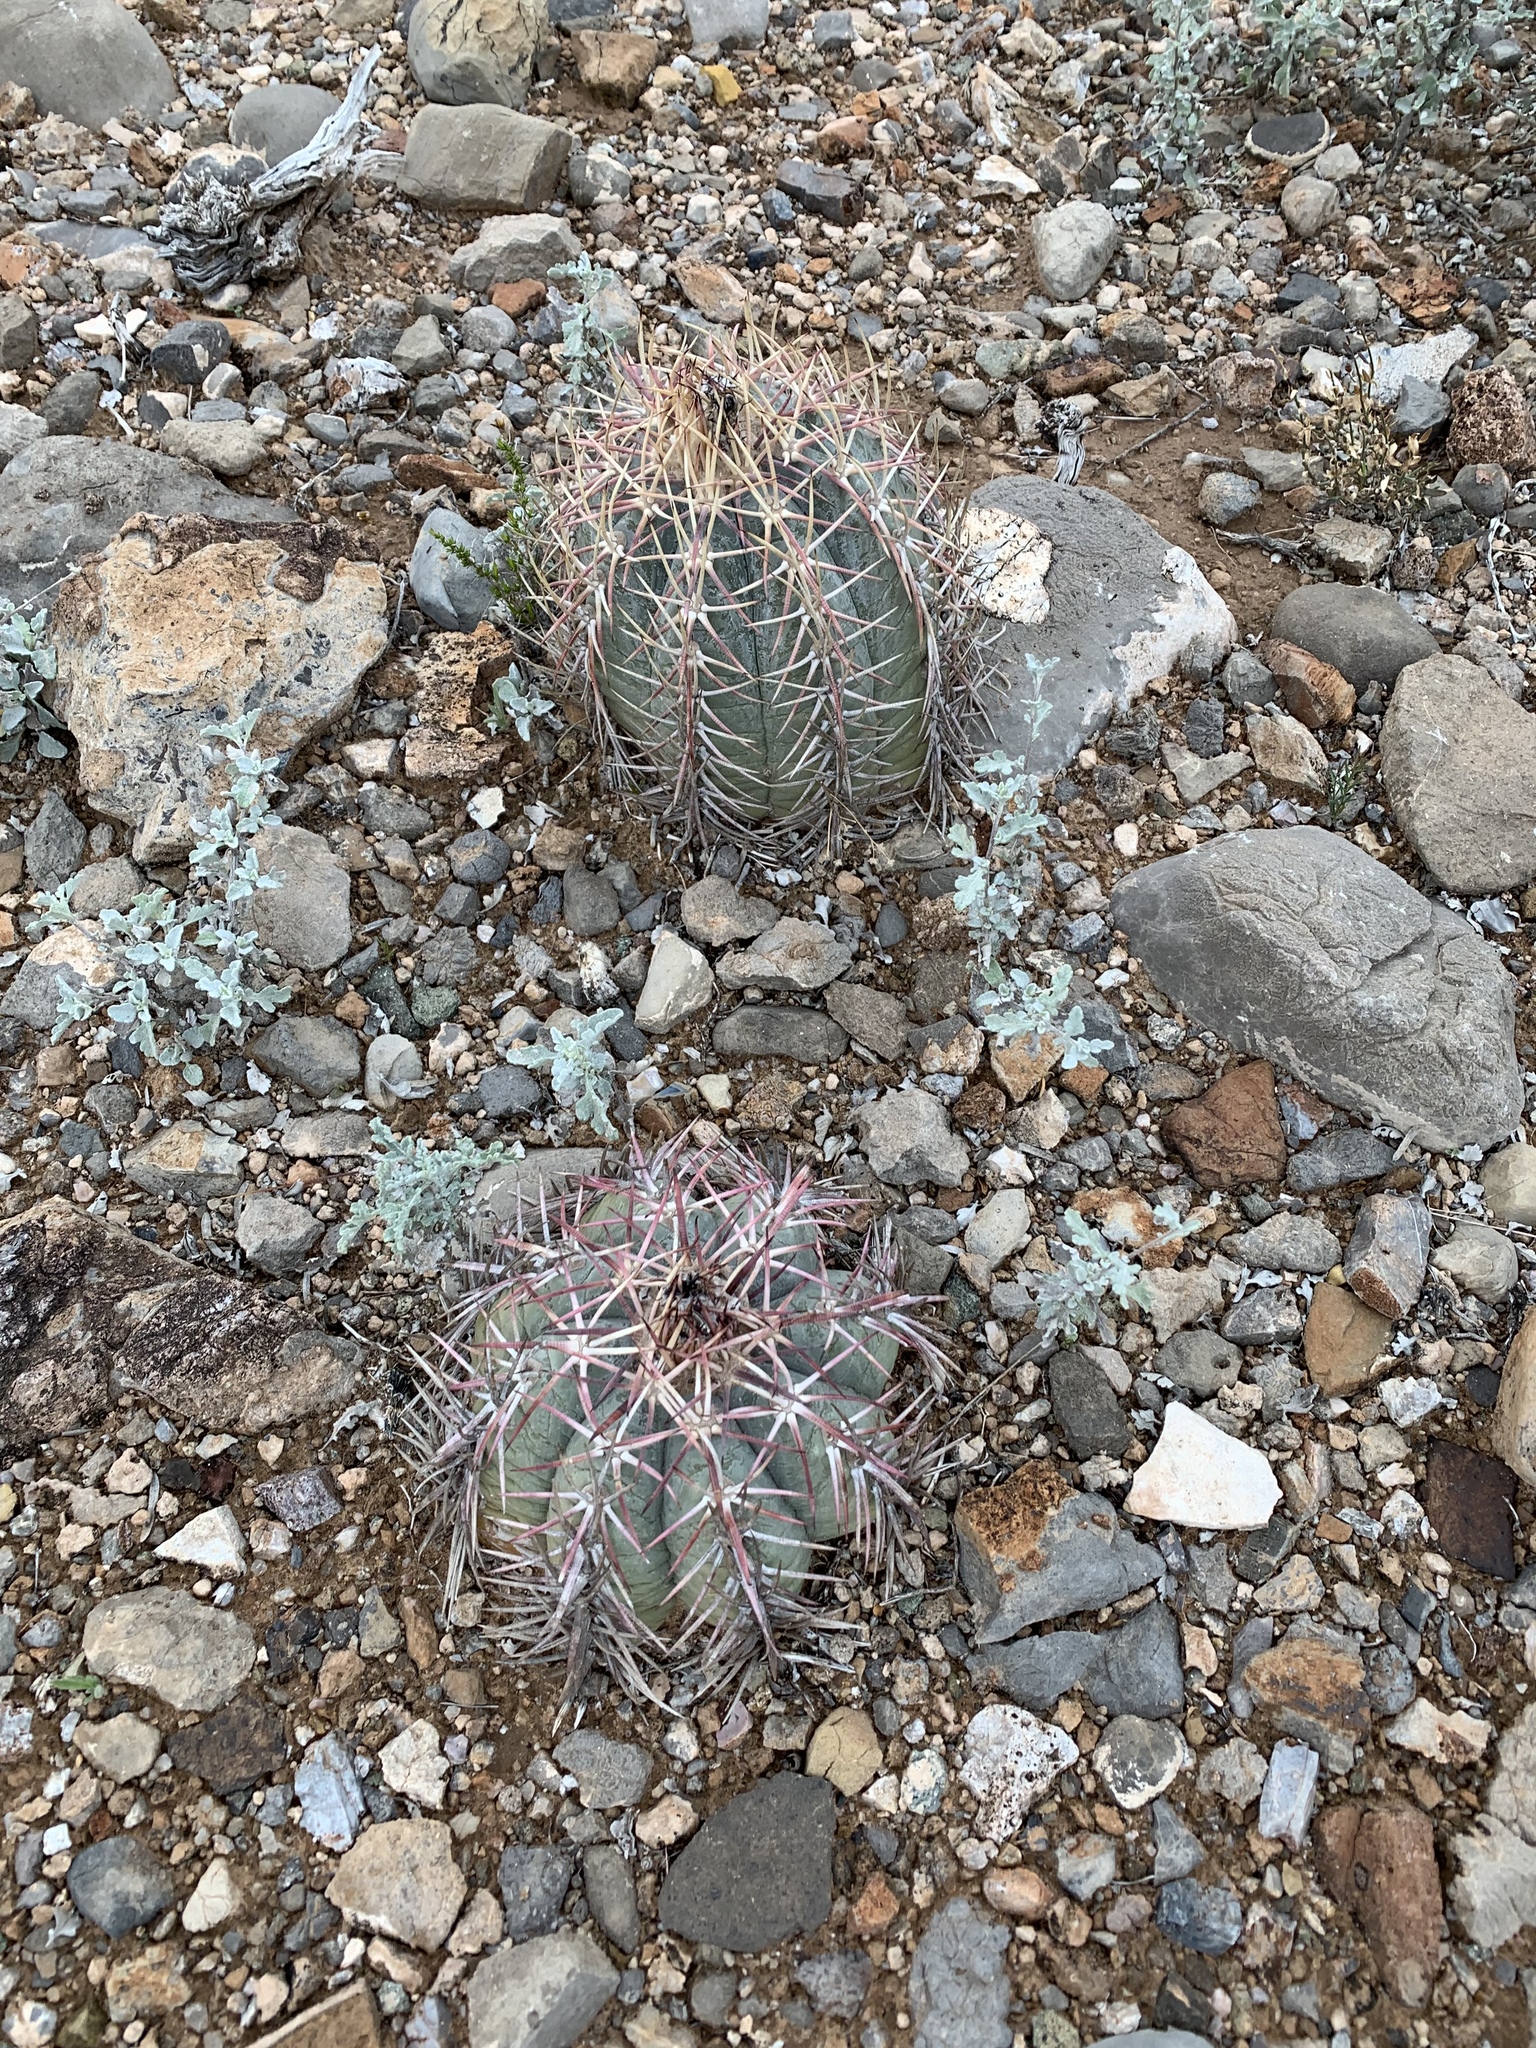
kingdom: Plantae
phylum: Tracheophyta
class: Magnoliopsida
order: Caryophyllales
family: Cactaceae
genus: Echinocactus
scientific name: Echinocactus horizonthalonius
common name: Devilshead
